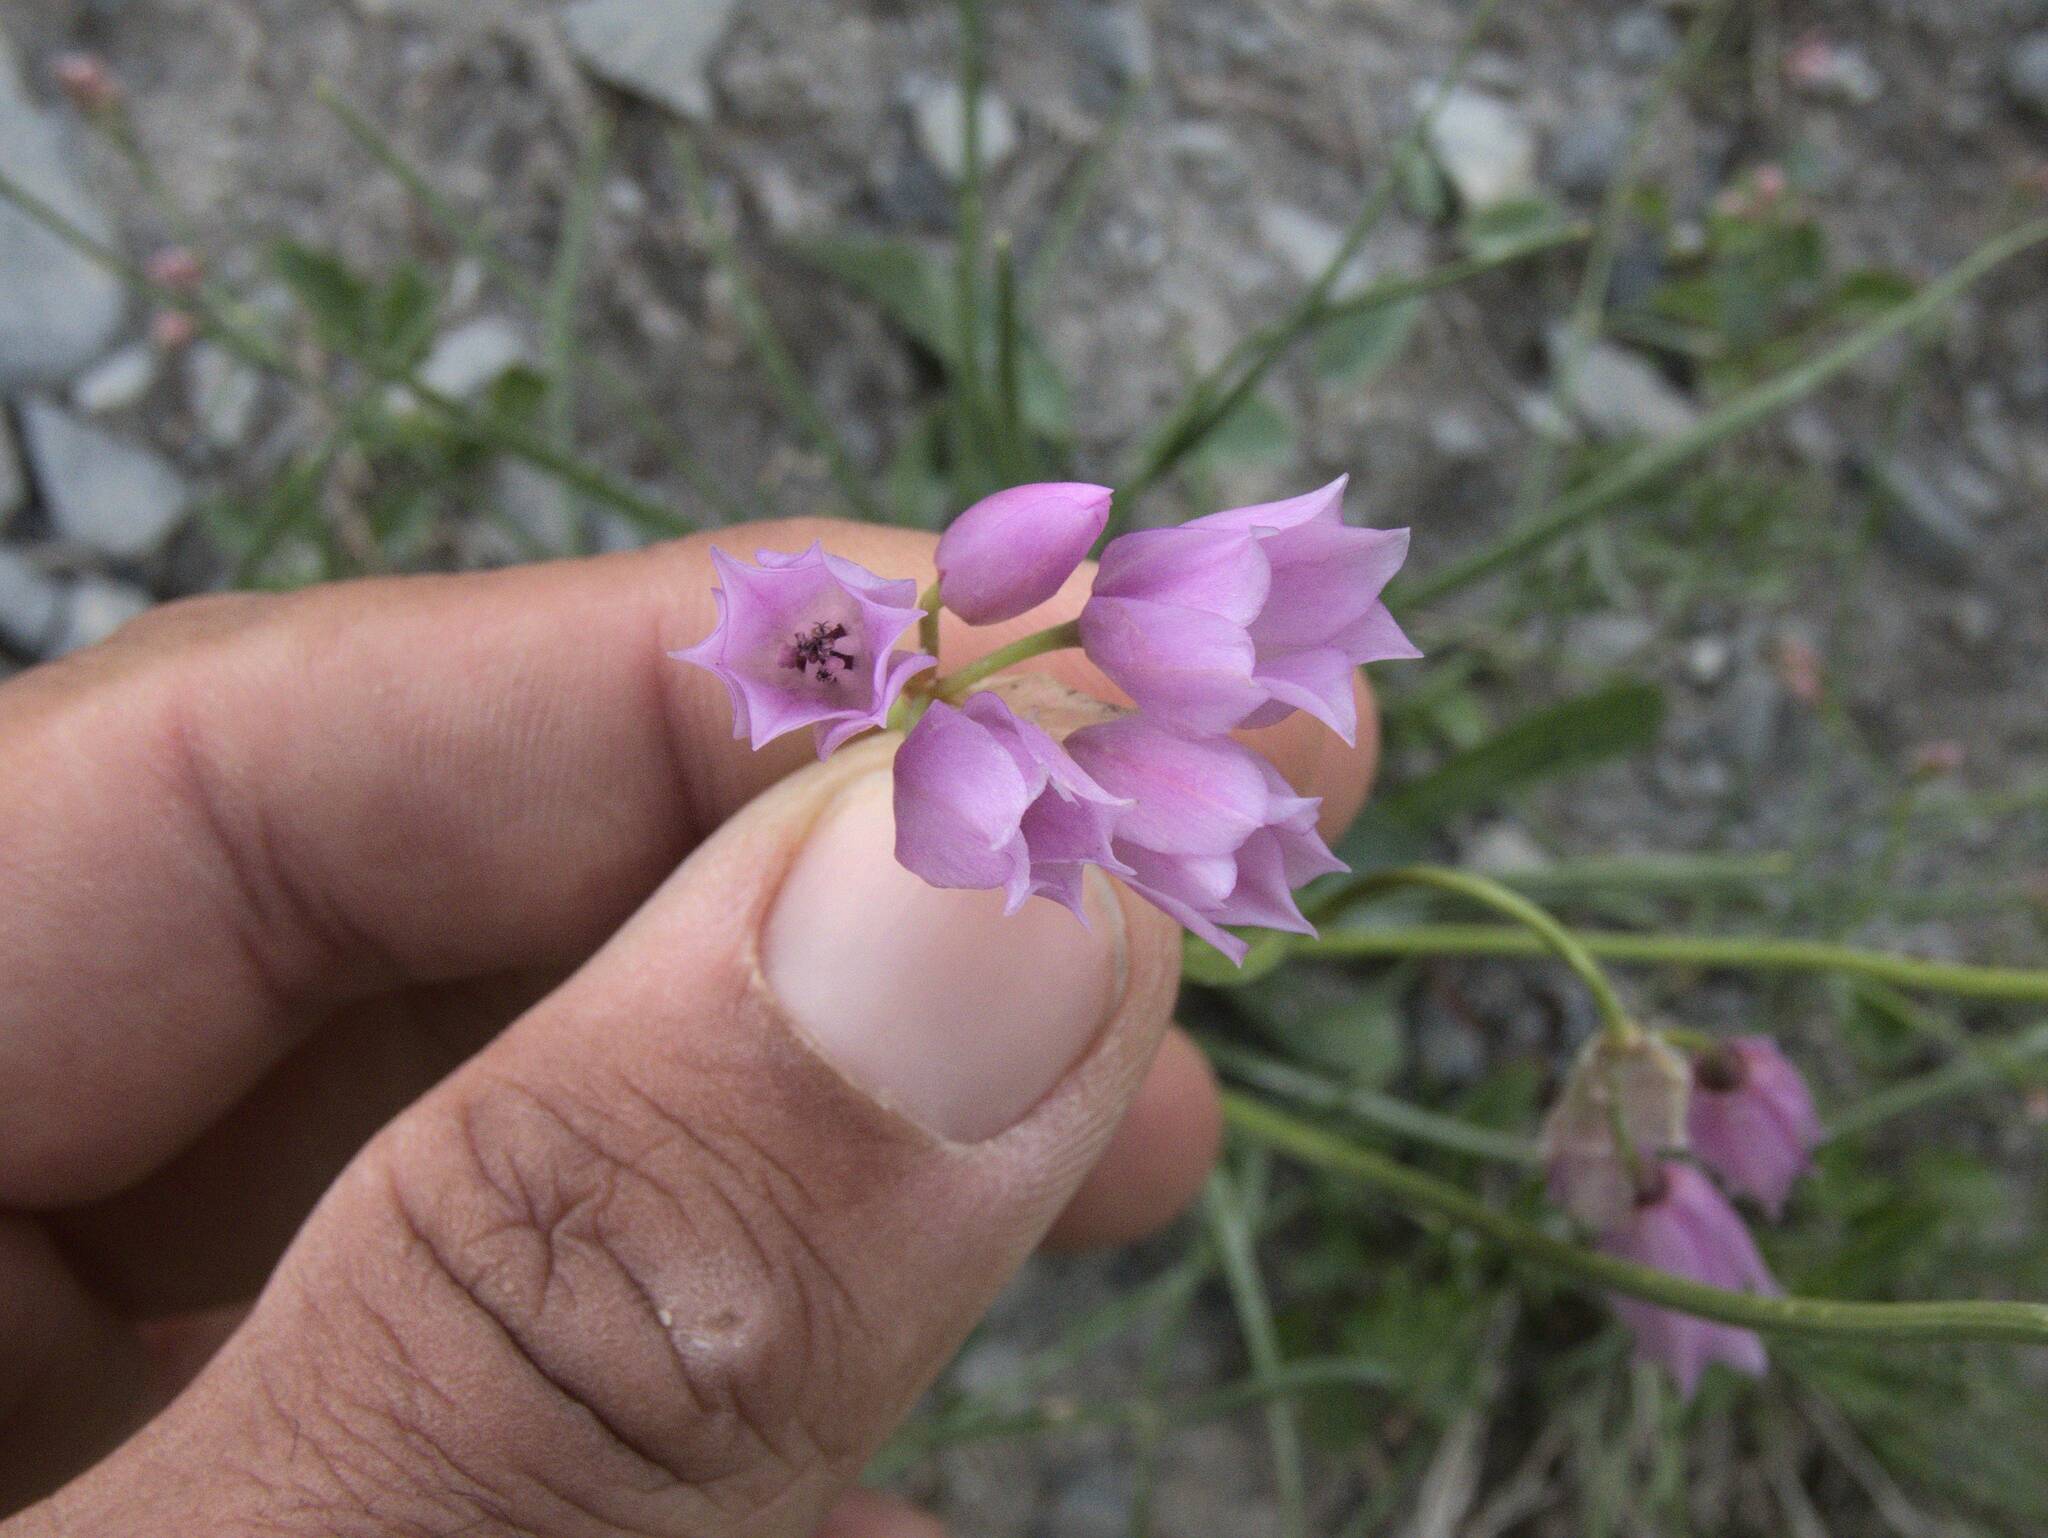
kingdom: Plantae
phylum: Tracheophyta
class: Liliopsida
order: Asparagales
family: Amaryllidaceae
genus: Allium
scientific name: Allium narcissiflorum
